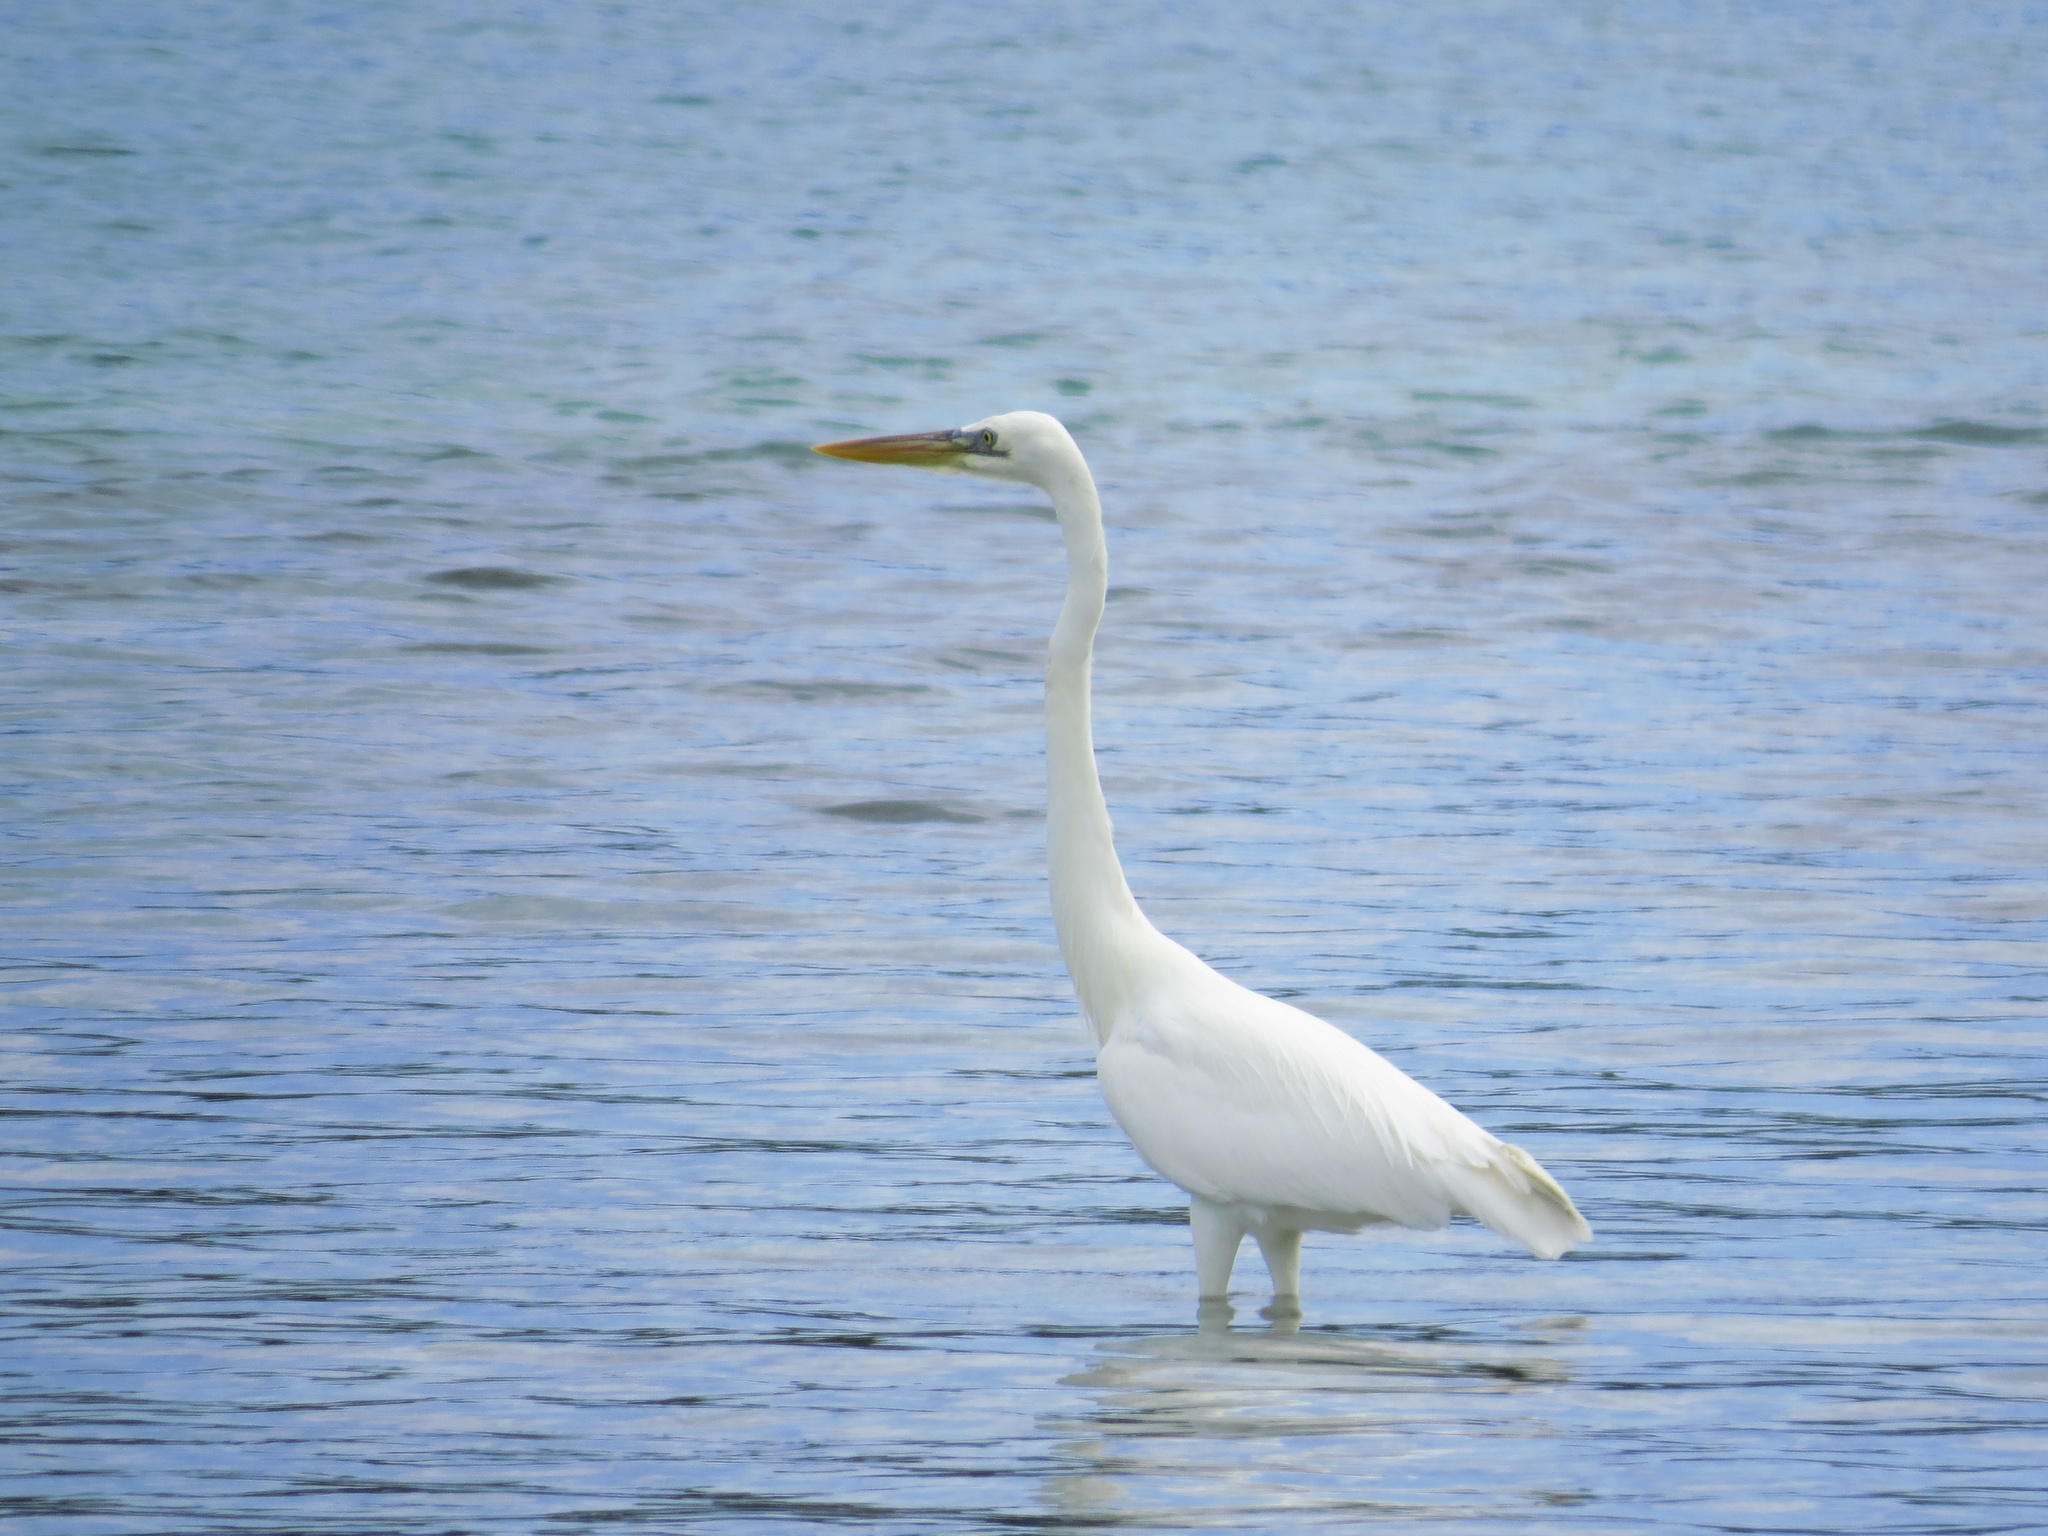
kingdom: Animalia
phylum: Chordata
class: Aves
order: Pelecaniformes
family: Ardeidae
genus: Ardea
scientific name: Ardea herodias
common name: Great blue heron
